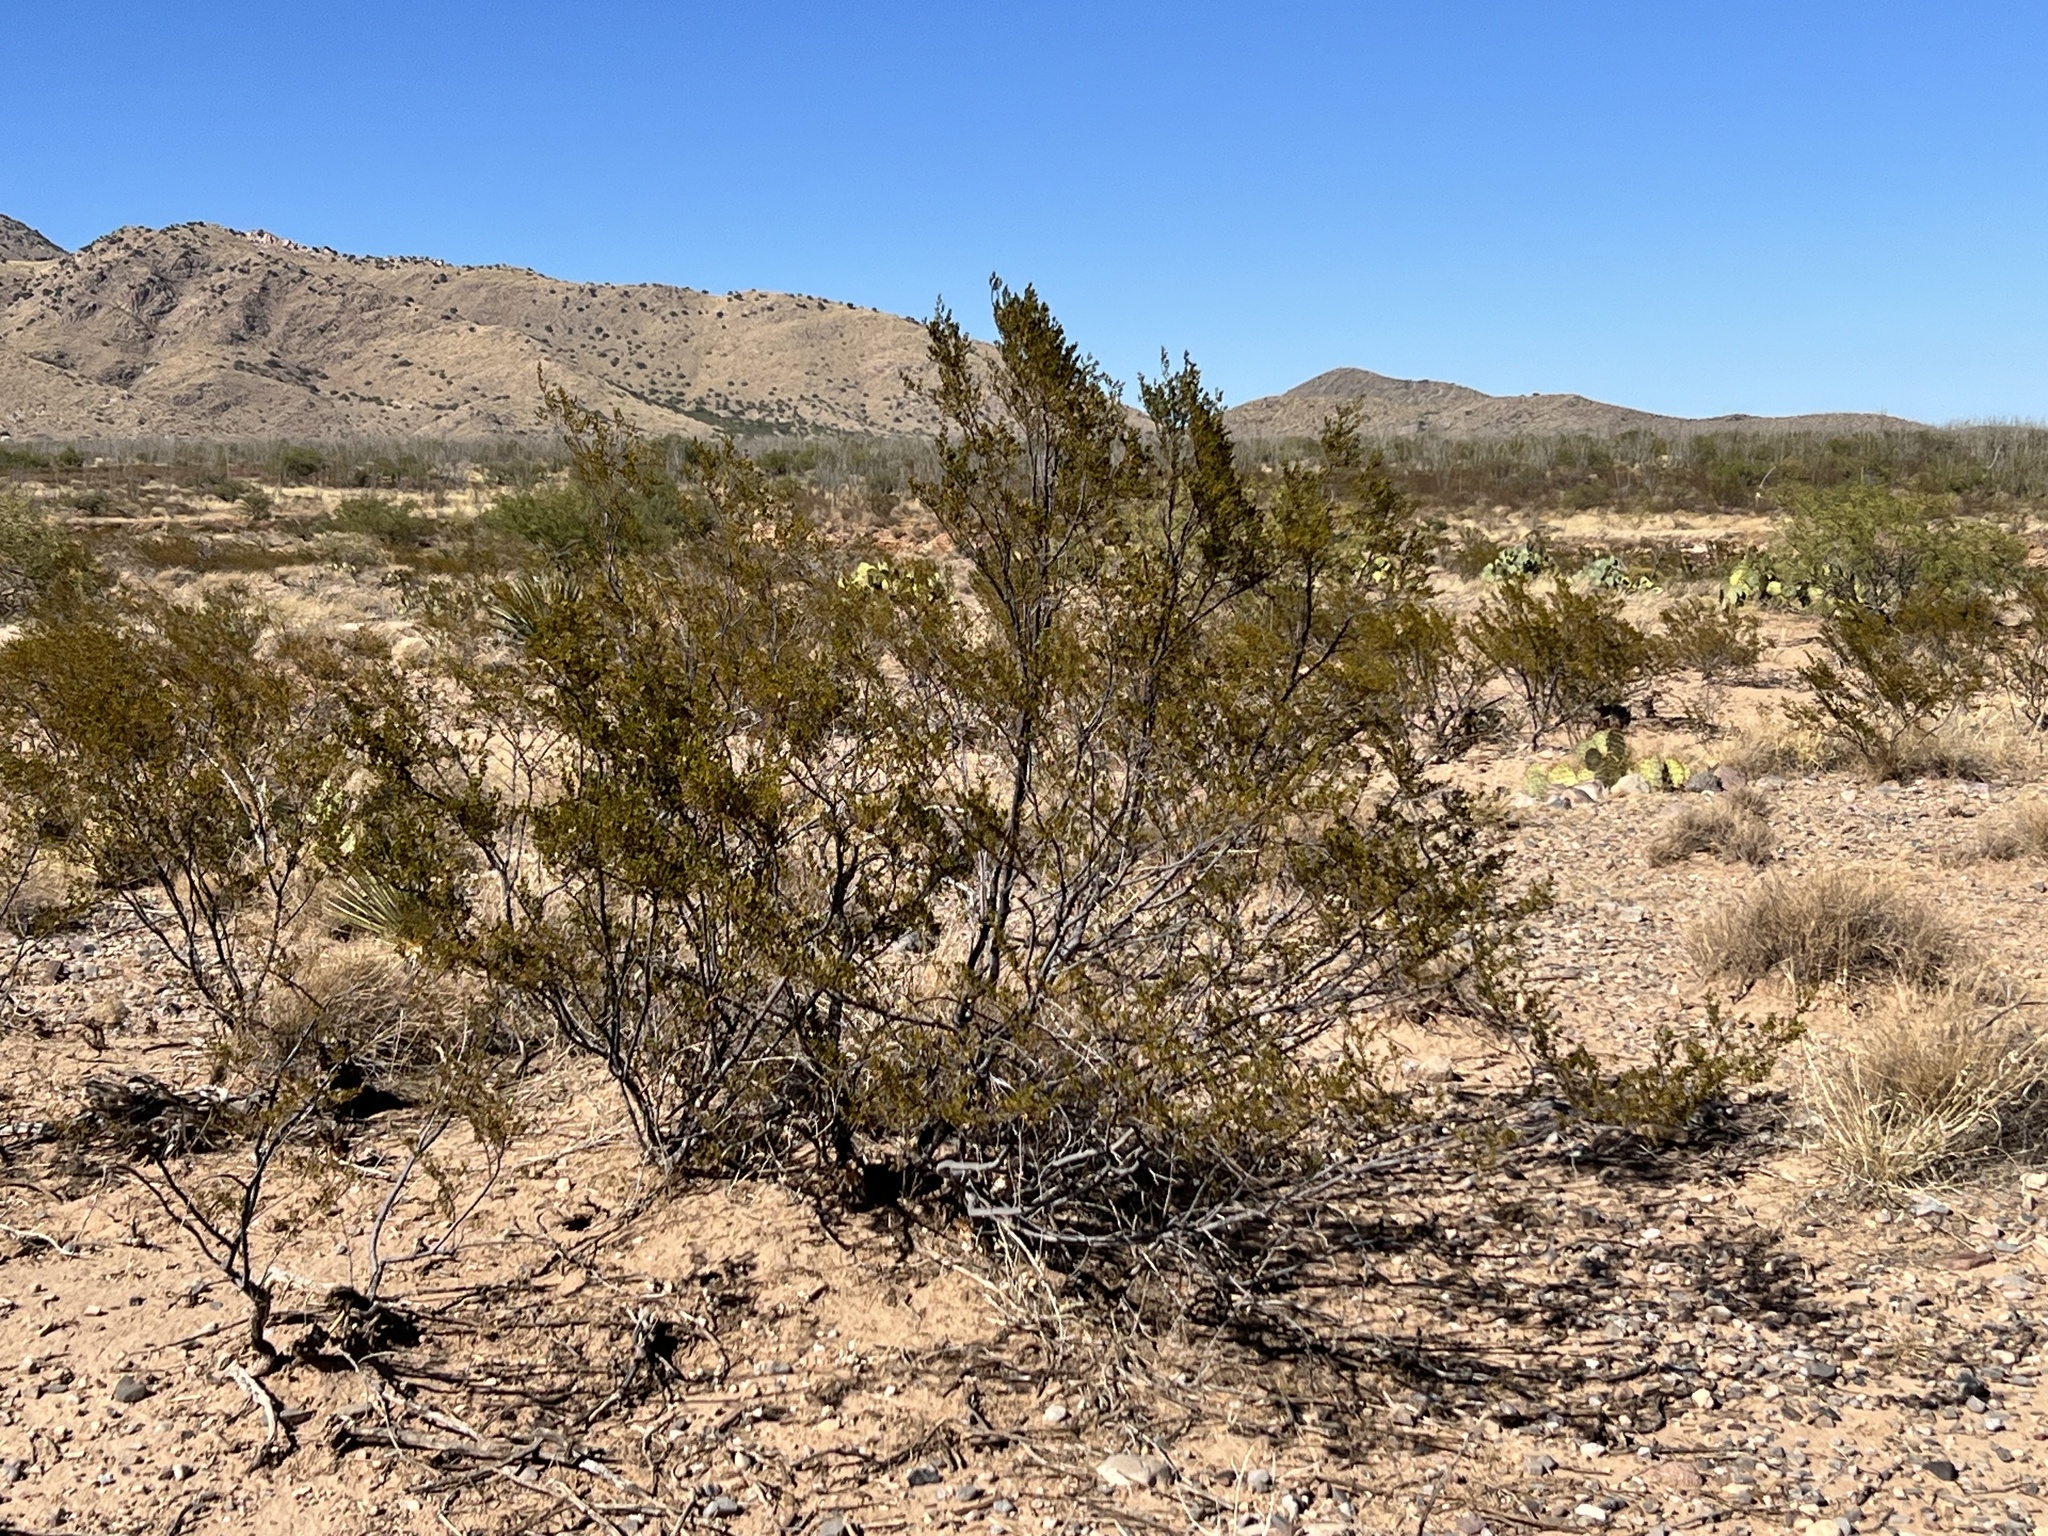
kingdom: Plantae
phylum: Tracheophyta
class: Magnoliopsida
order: Zygophyllales
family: Zygophyllaceae
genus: Larrea
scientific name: Larrea tridentata
